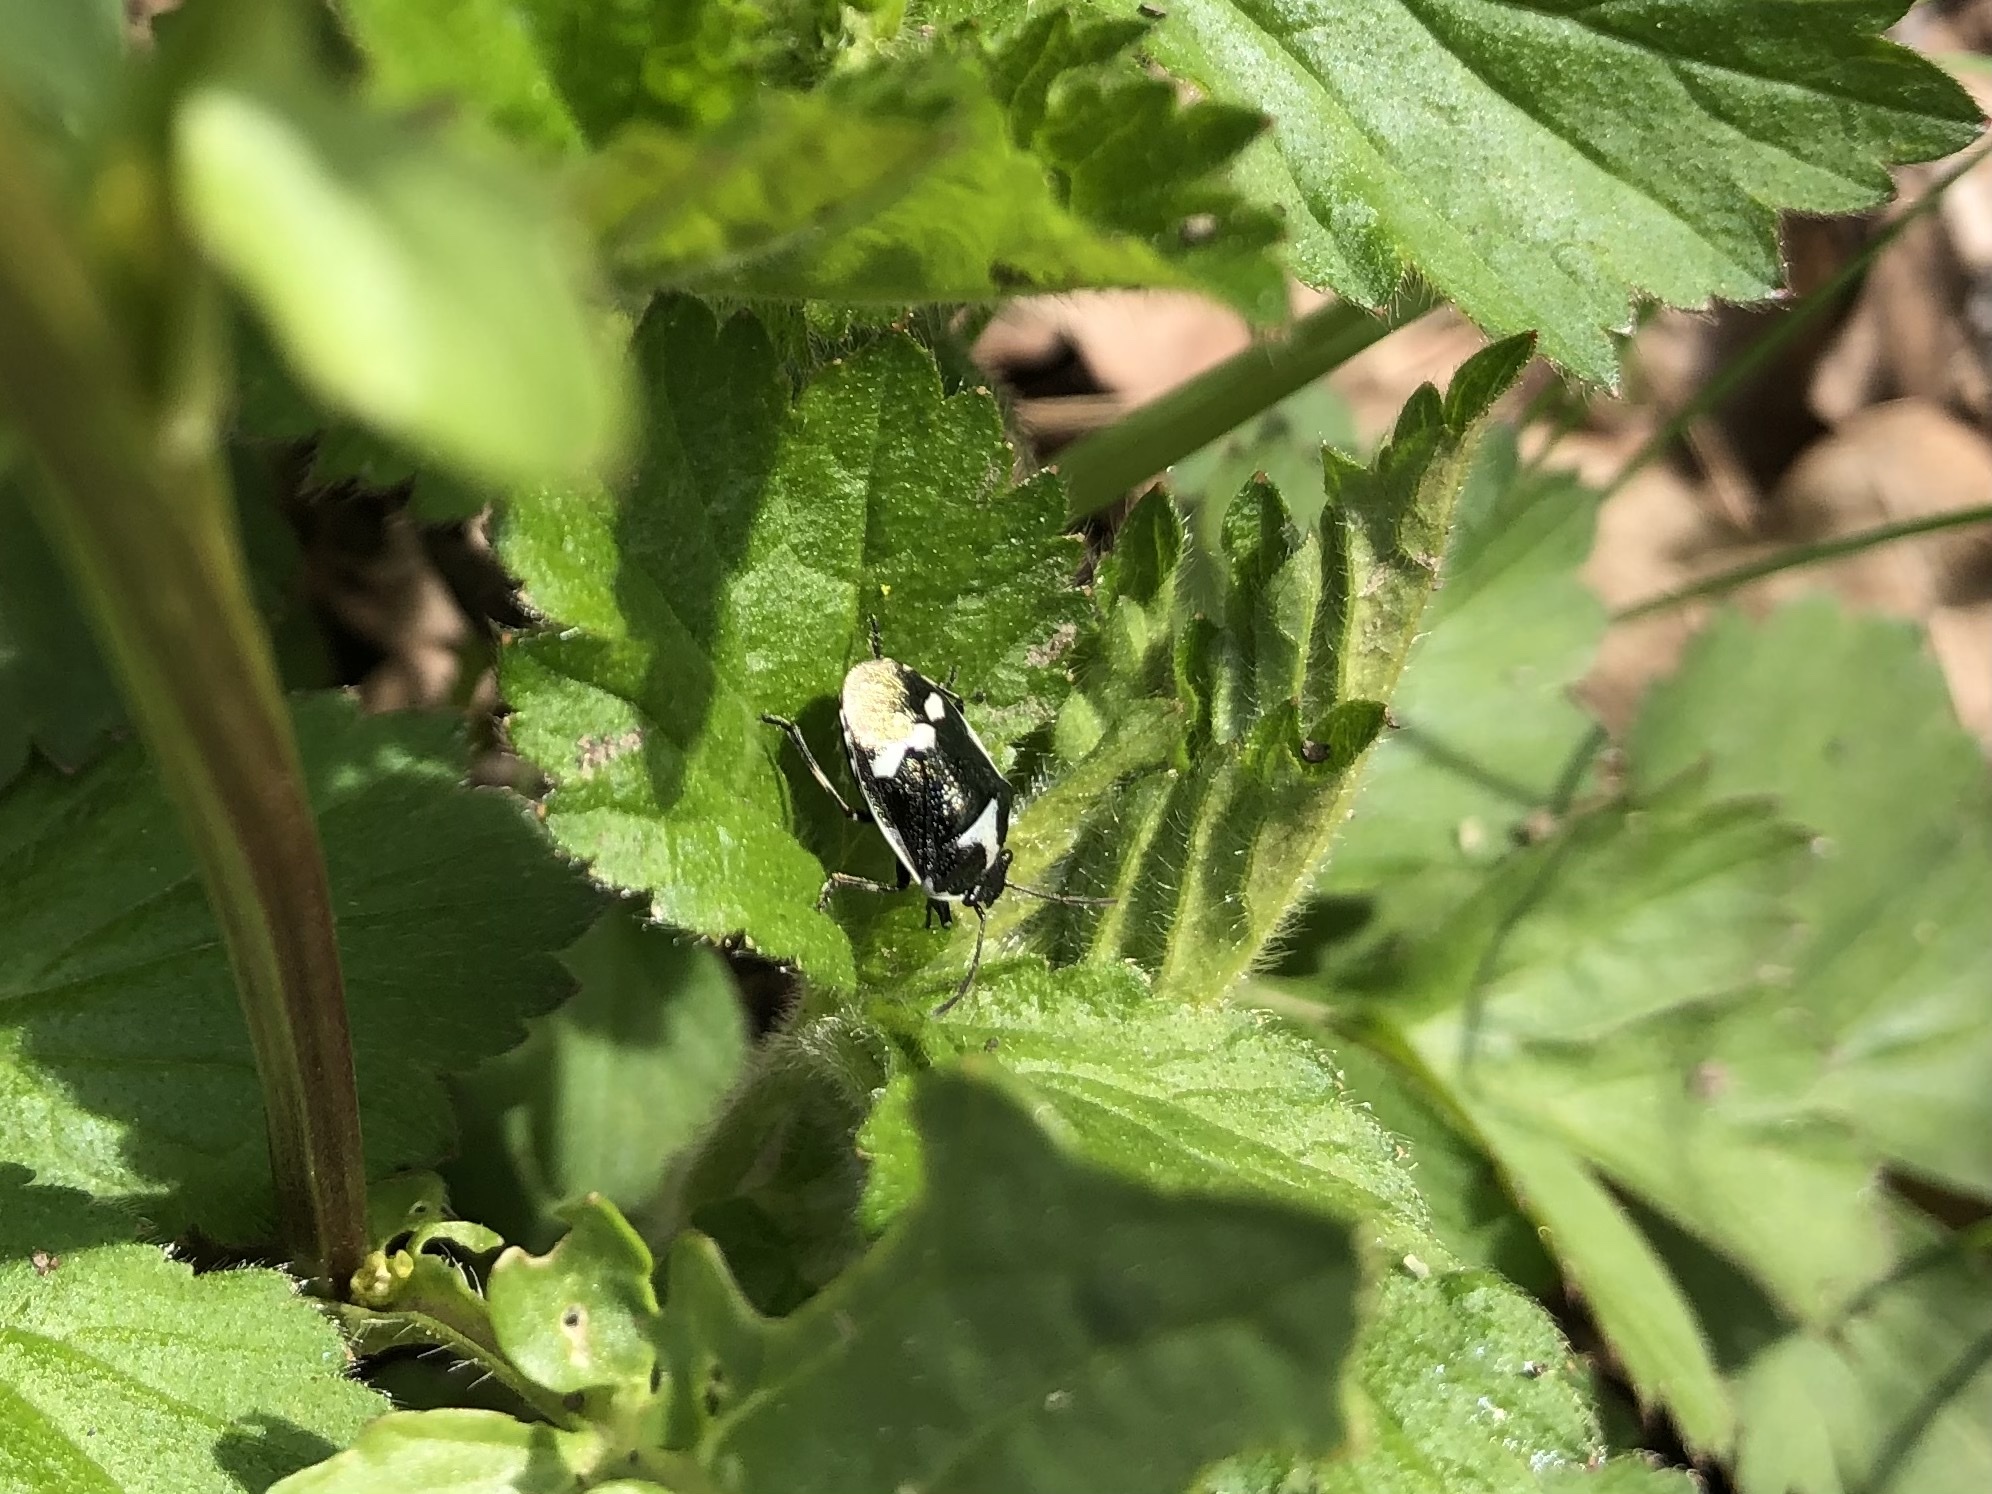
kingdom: Animalia
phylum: Arthropoda
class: Insecta
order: Hemiptera
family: Pentatomidae
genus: Eurydema
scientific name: Eurydema oleracea
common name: Cabbage bug
